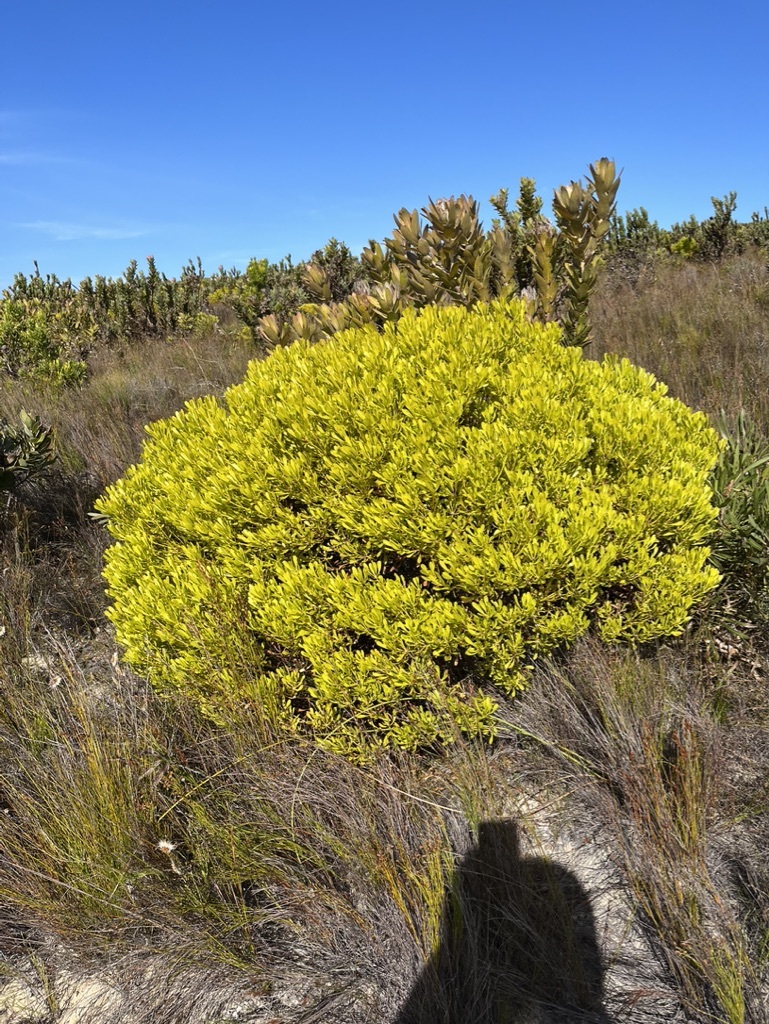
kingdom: Plantae
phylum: Tracheophyta
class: Magnoliopsida
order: Proteales
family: Proteaceae
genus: Leucadendron
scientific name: Leucadendron platyspermum
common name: Plate-seed conebush
